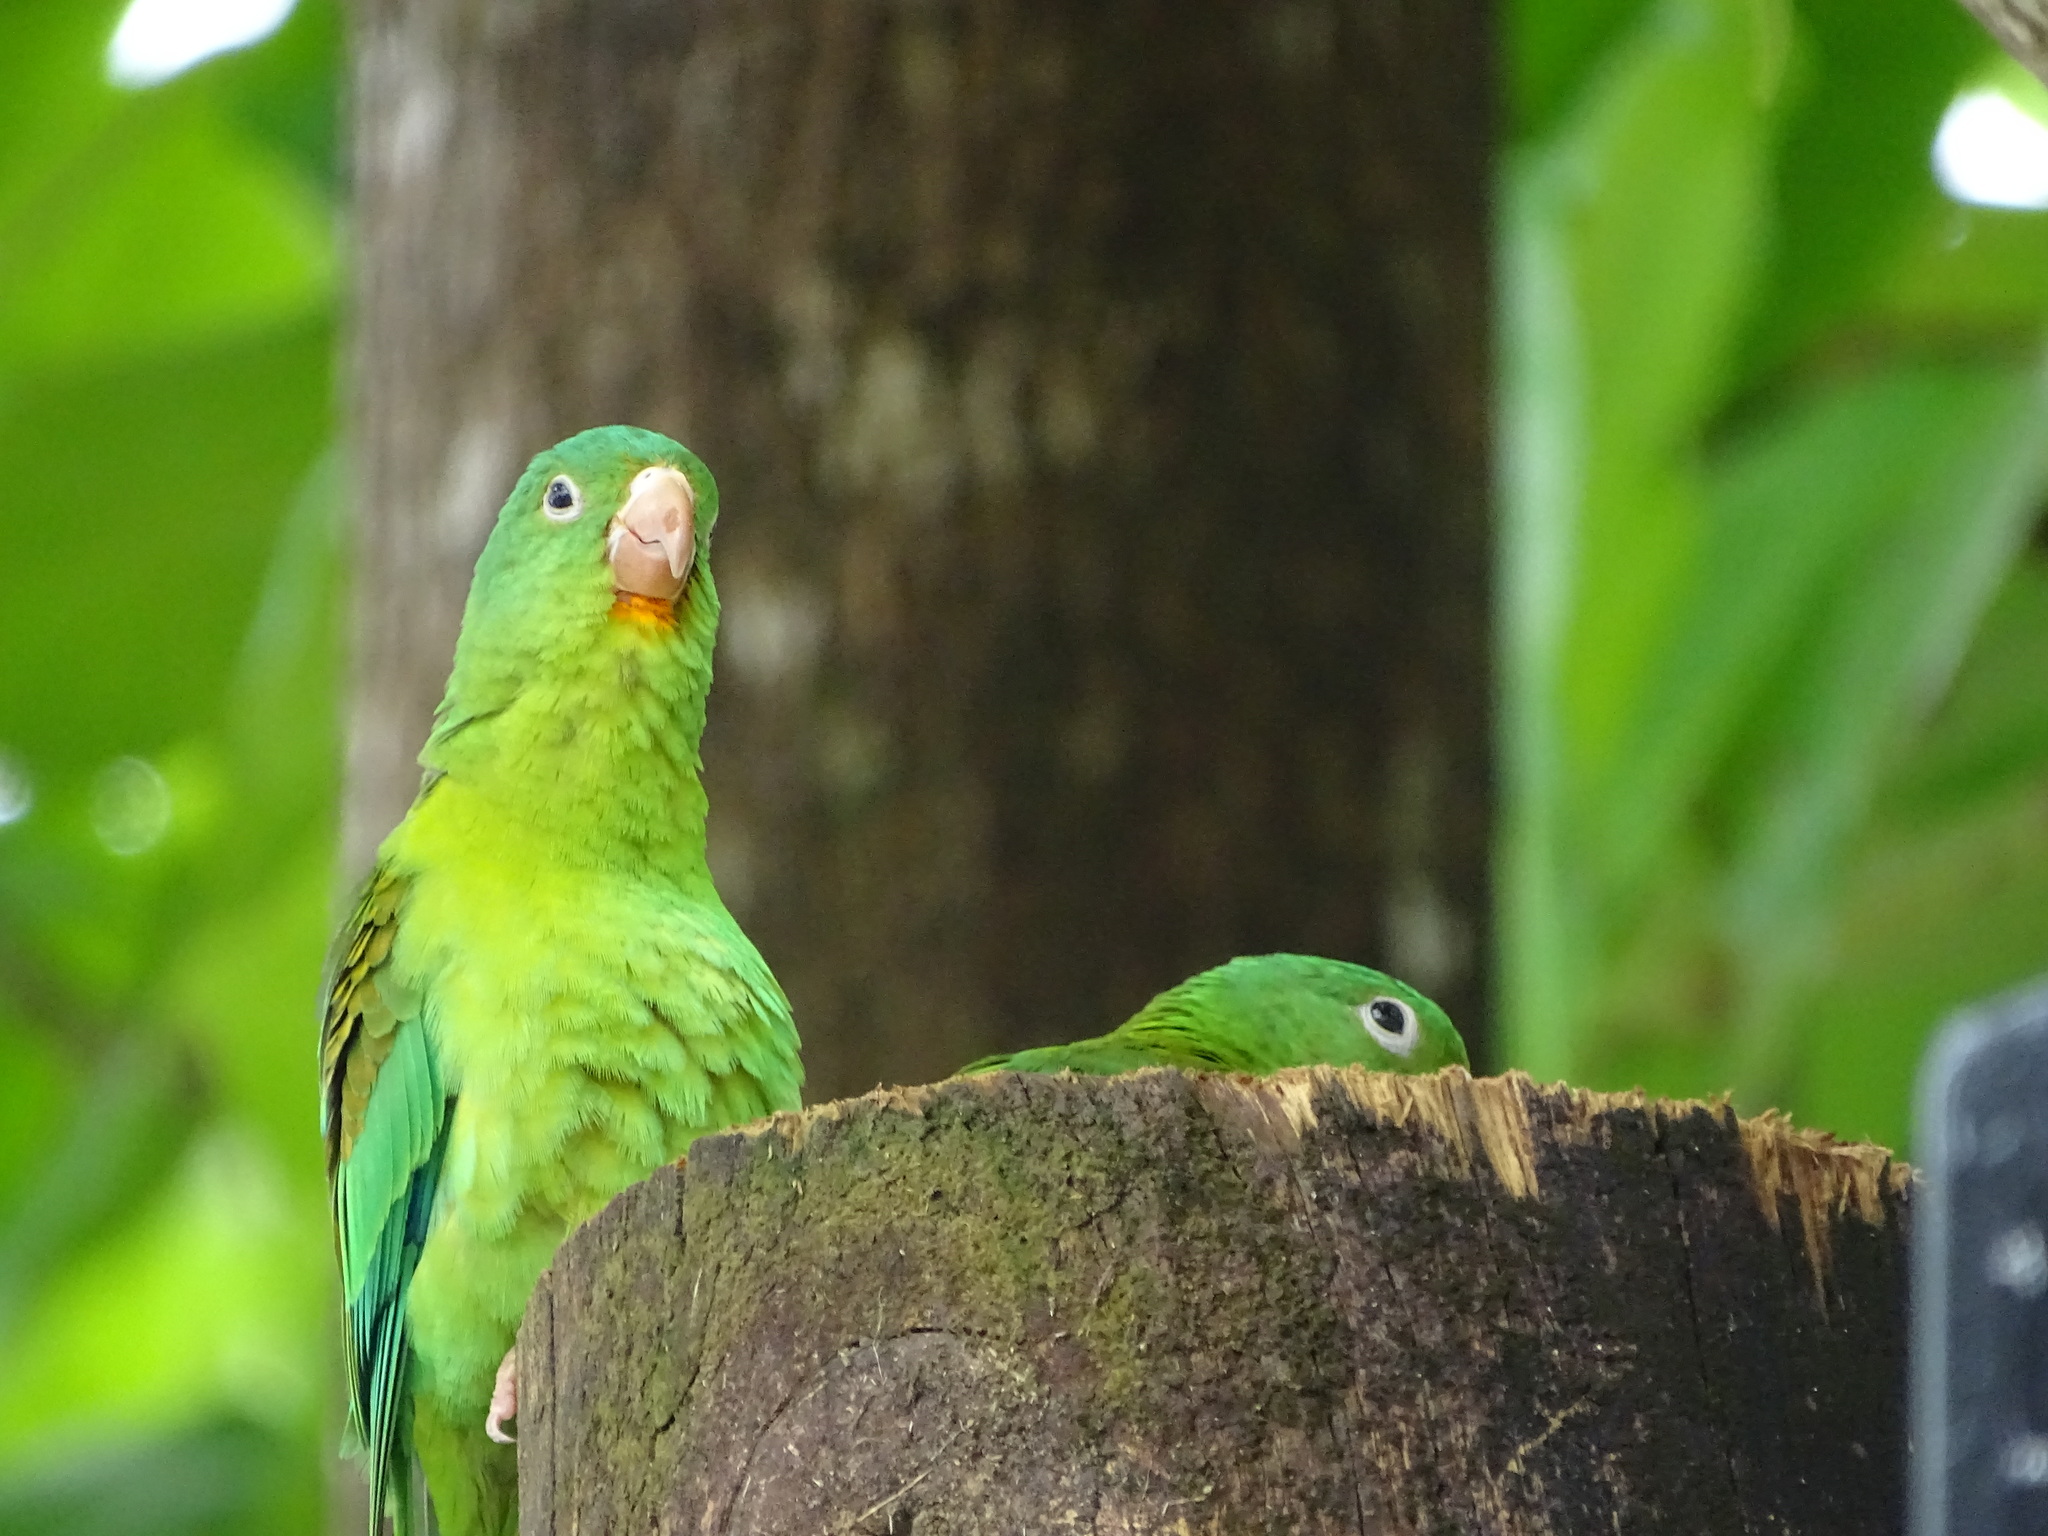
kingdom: Animalia
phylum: Chordata
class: Aves
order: Psittaciformes
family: Psittacidae
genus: Brotogeris
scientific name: Brotogeris jugularis
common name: Orange-chinned parakeet
